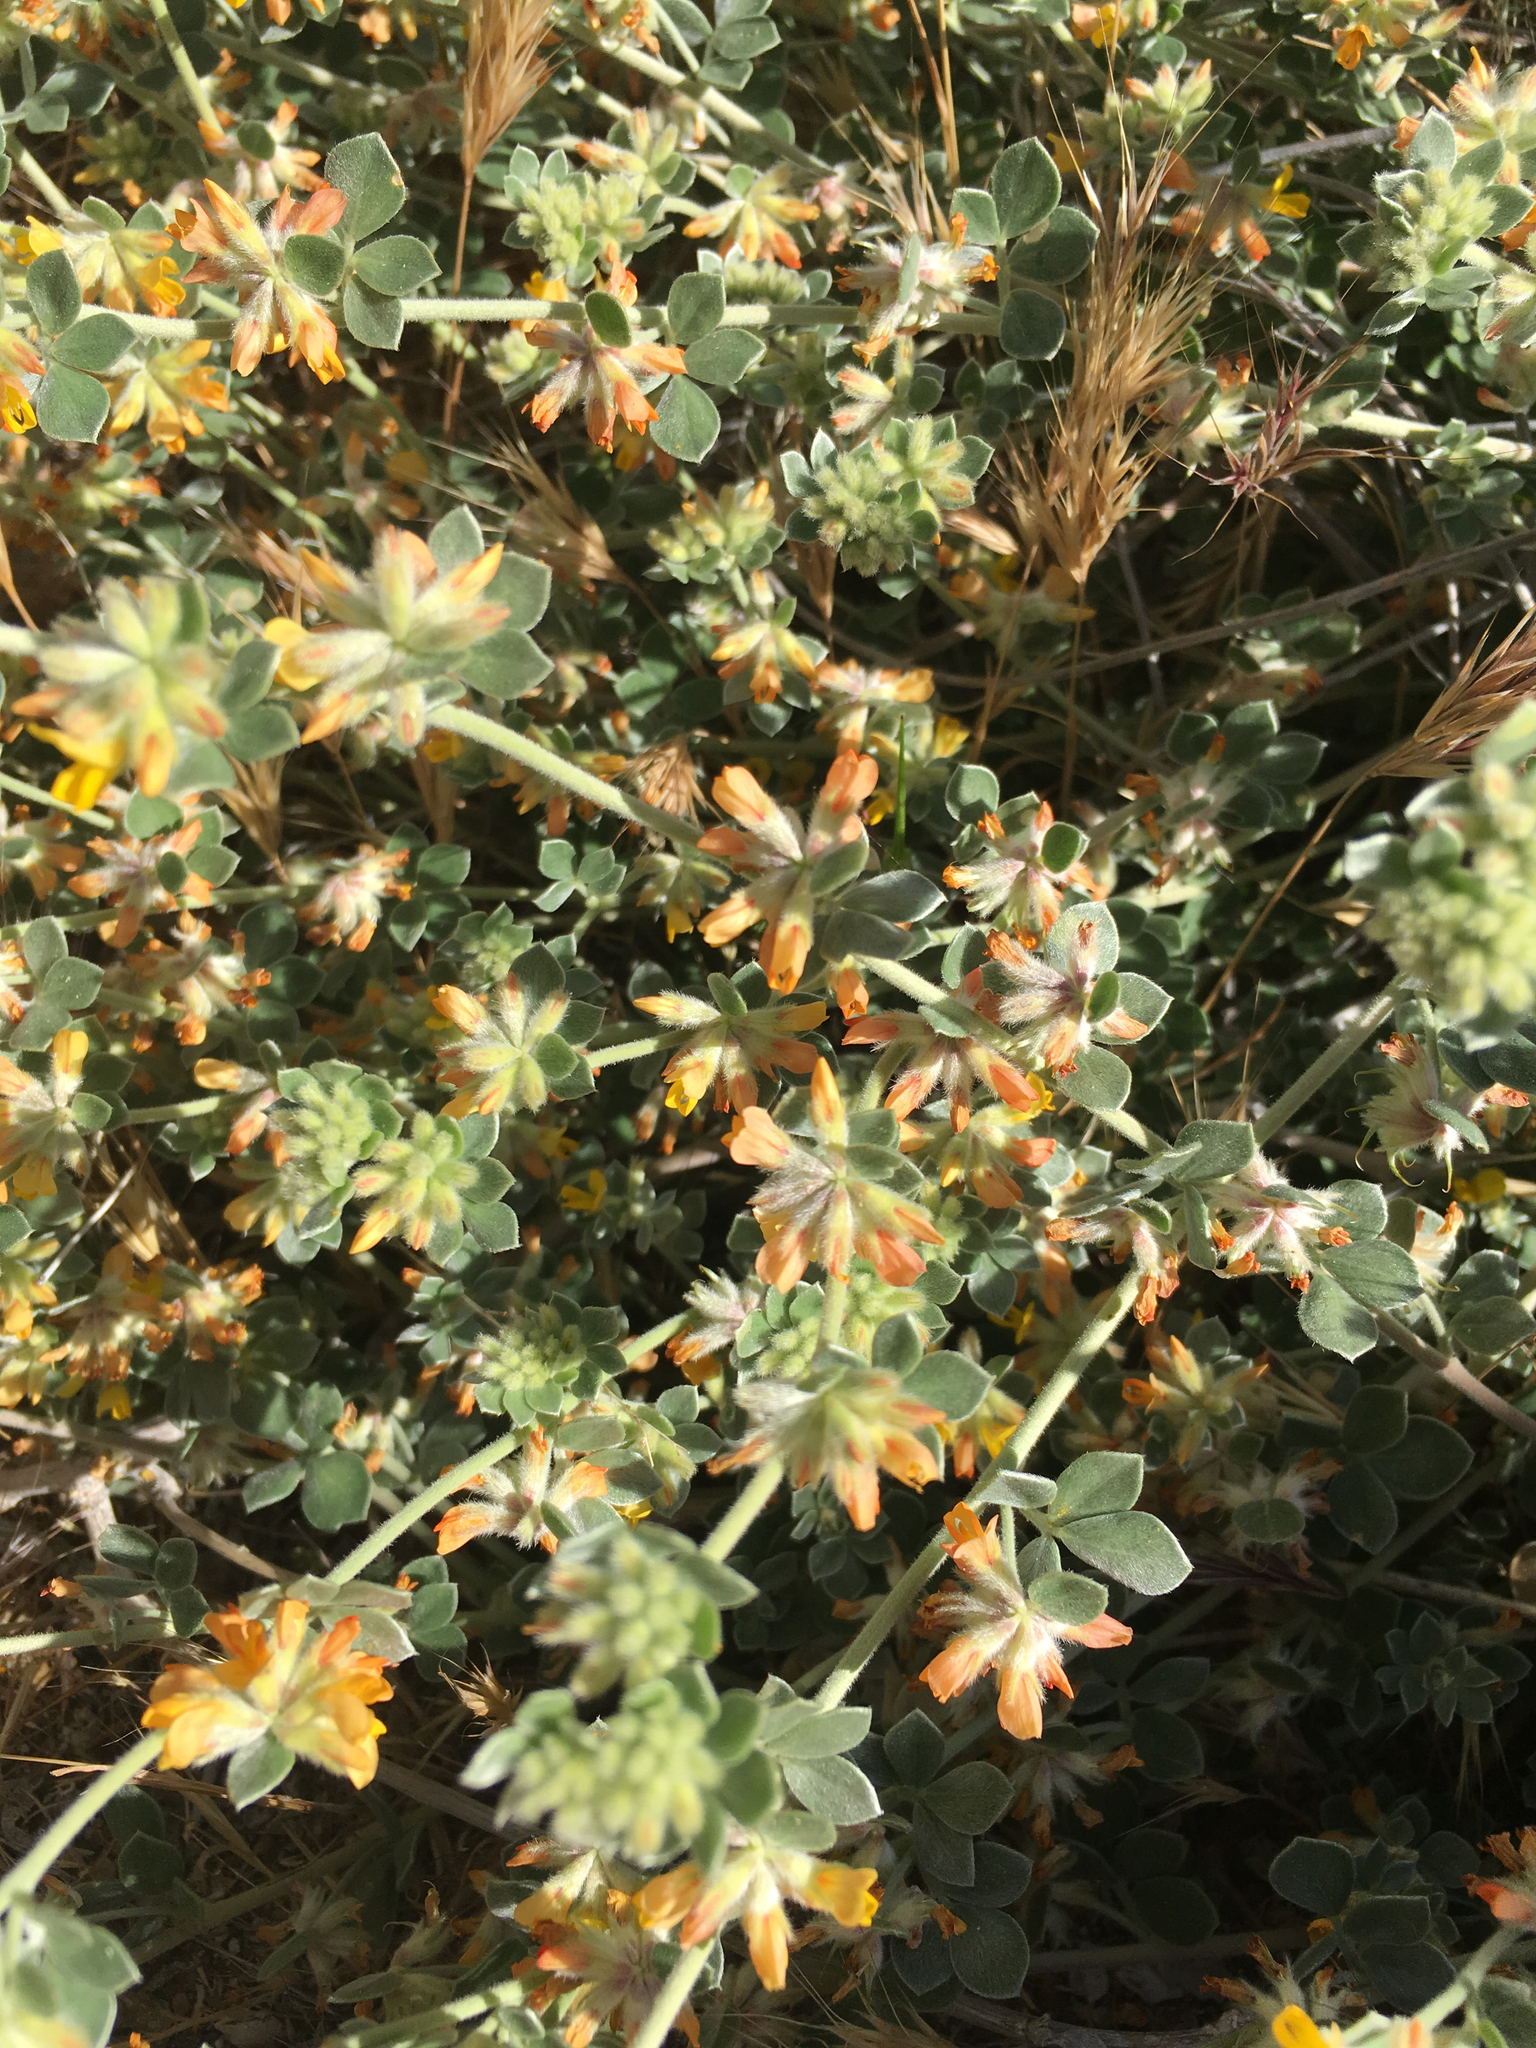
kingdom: Plantae
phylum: Tracheophyta
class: Magnoliopsida
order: Fabales
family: Fabaceae
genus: Acmispon
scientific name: Acmispon argophyllus
